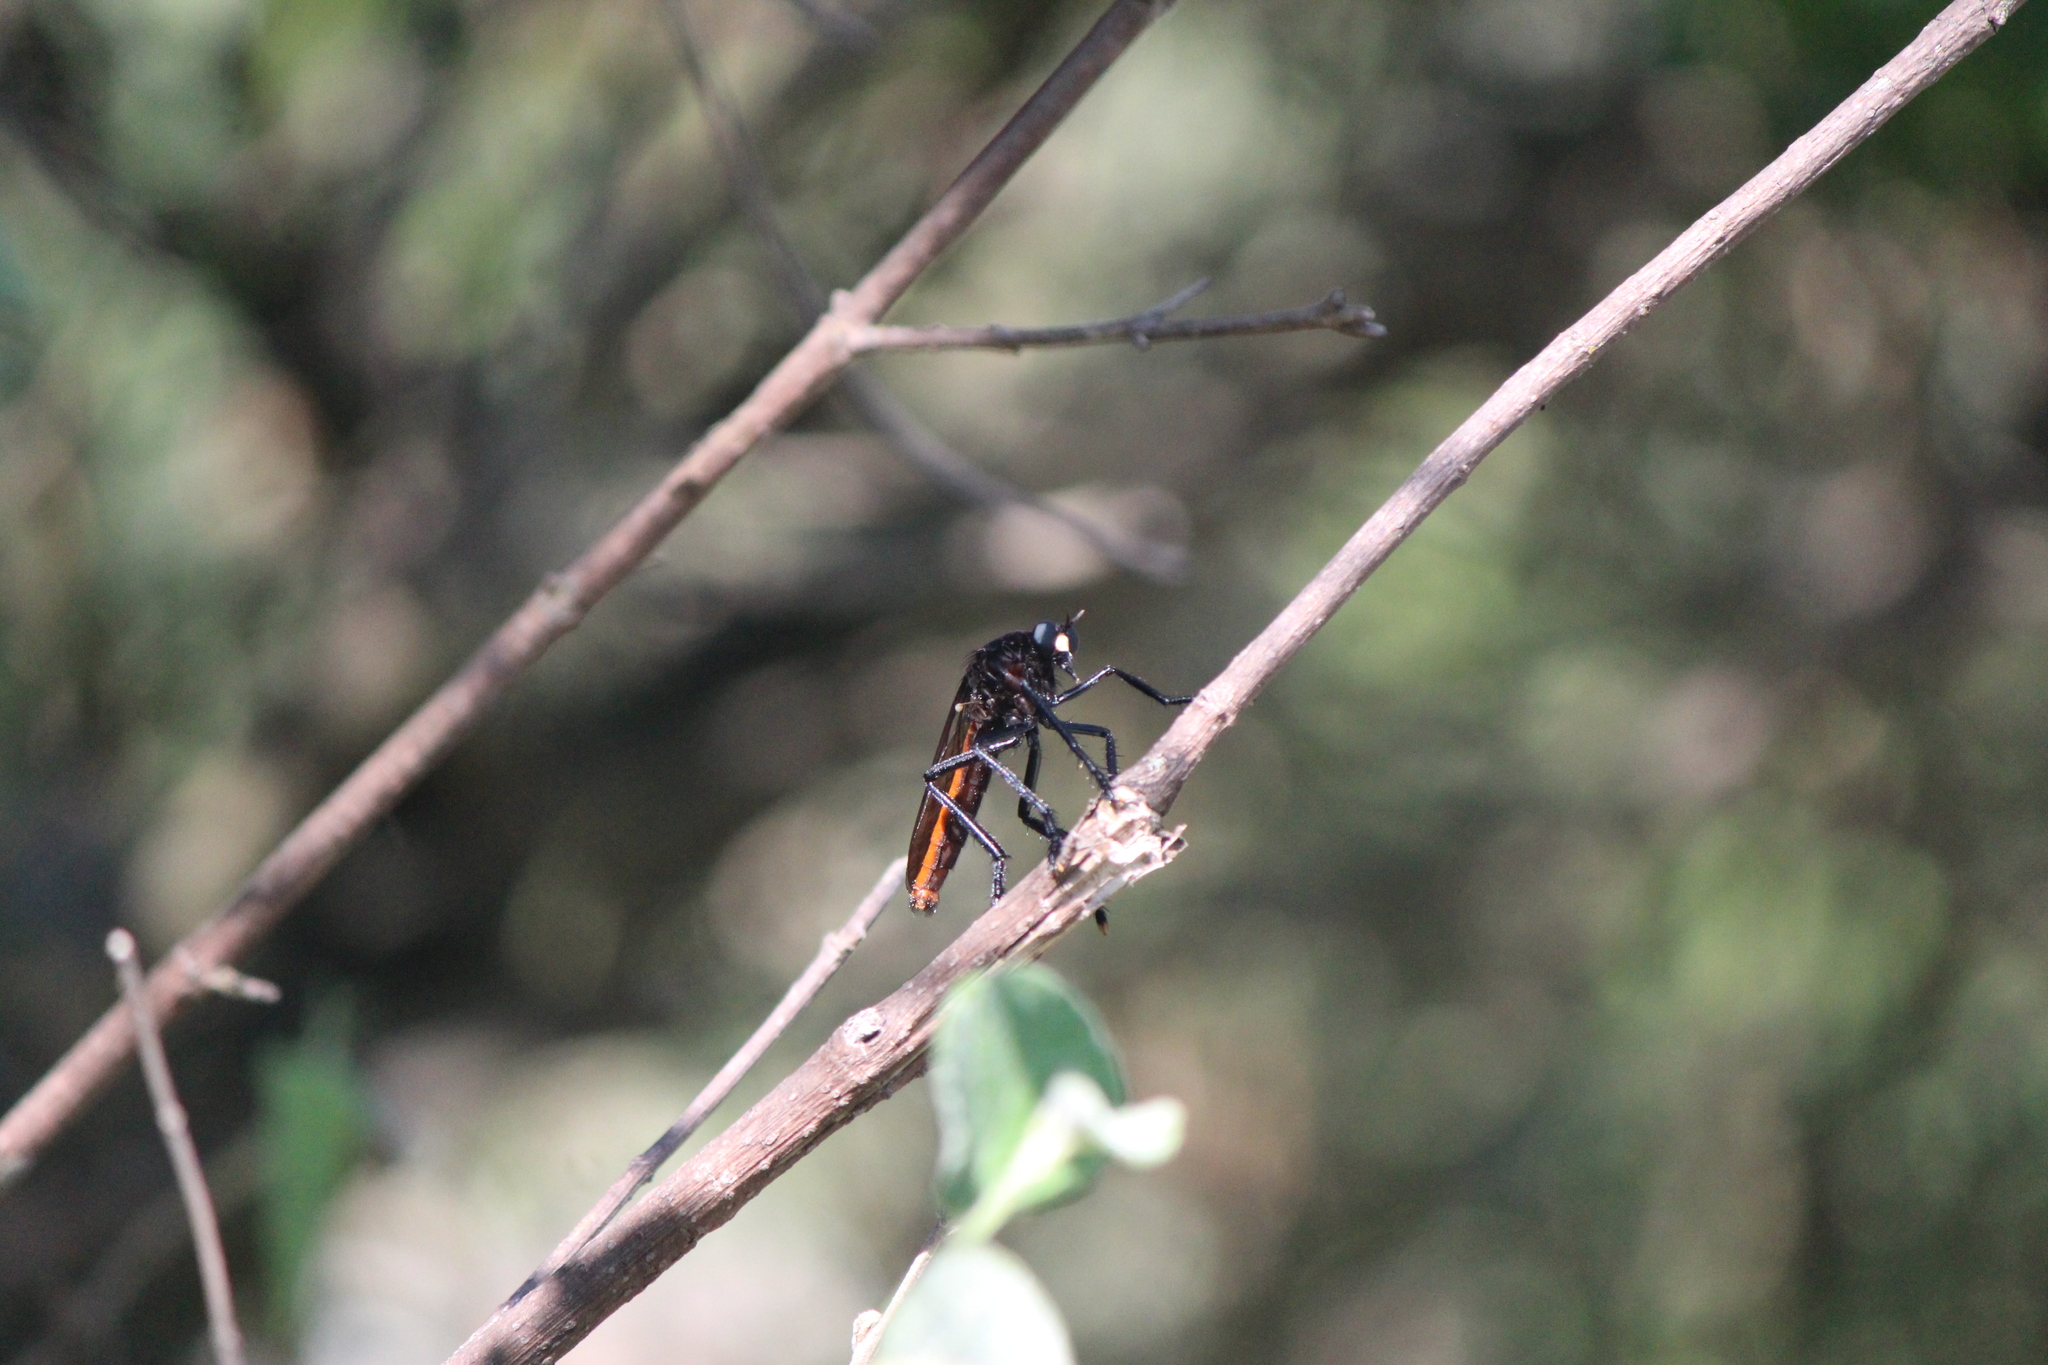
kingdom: Animalia
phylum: Arthropoda
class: Insecta
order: Diptera
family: Asilidae
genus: Archilestris
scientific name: Archilestris magnificus
